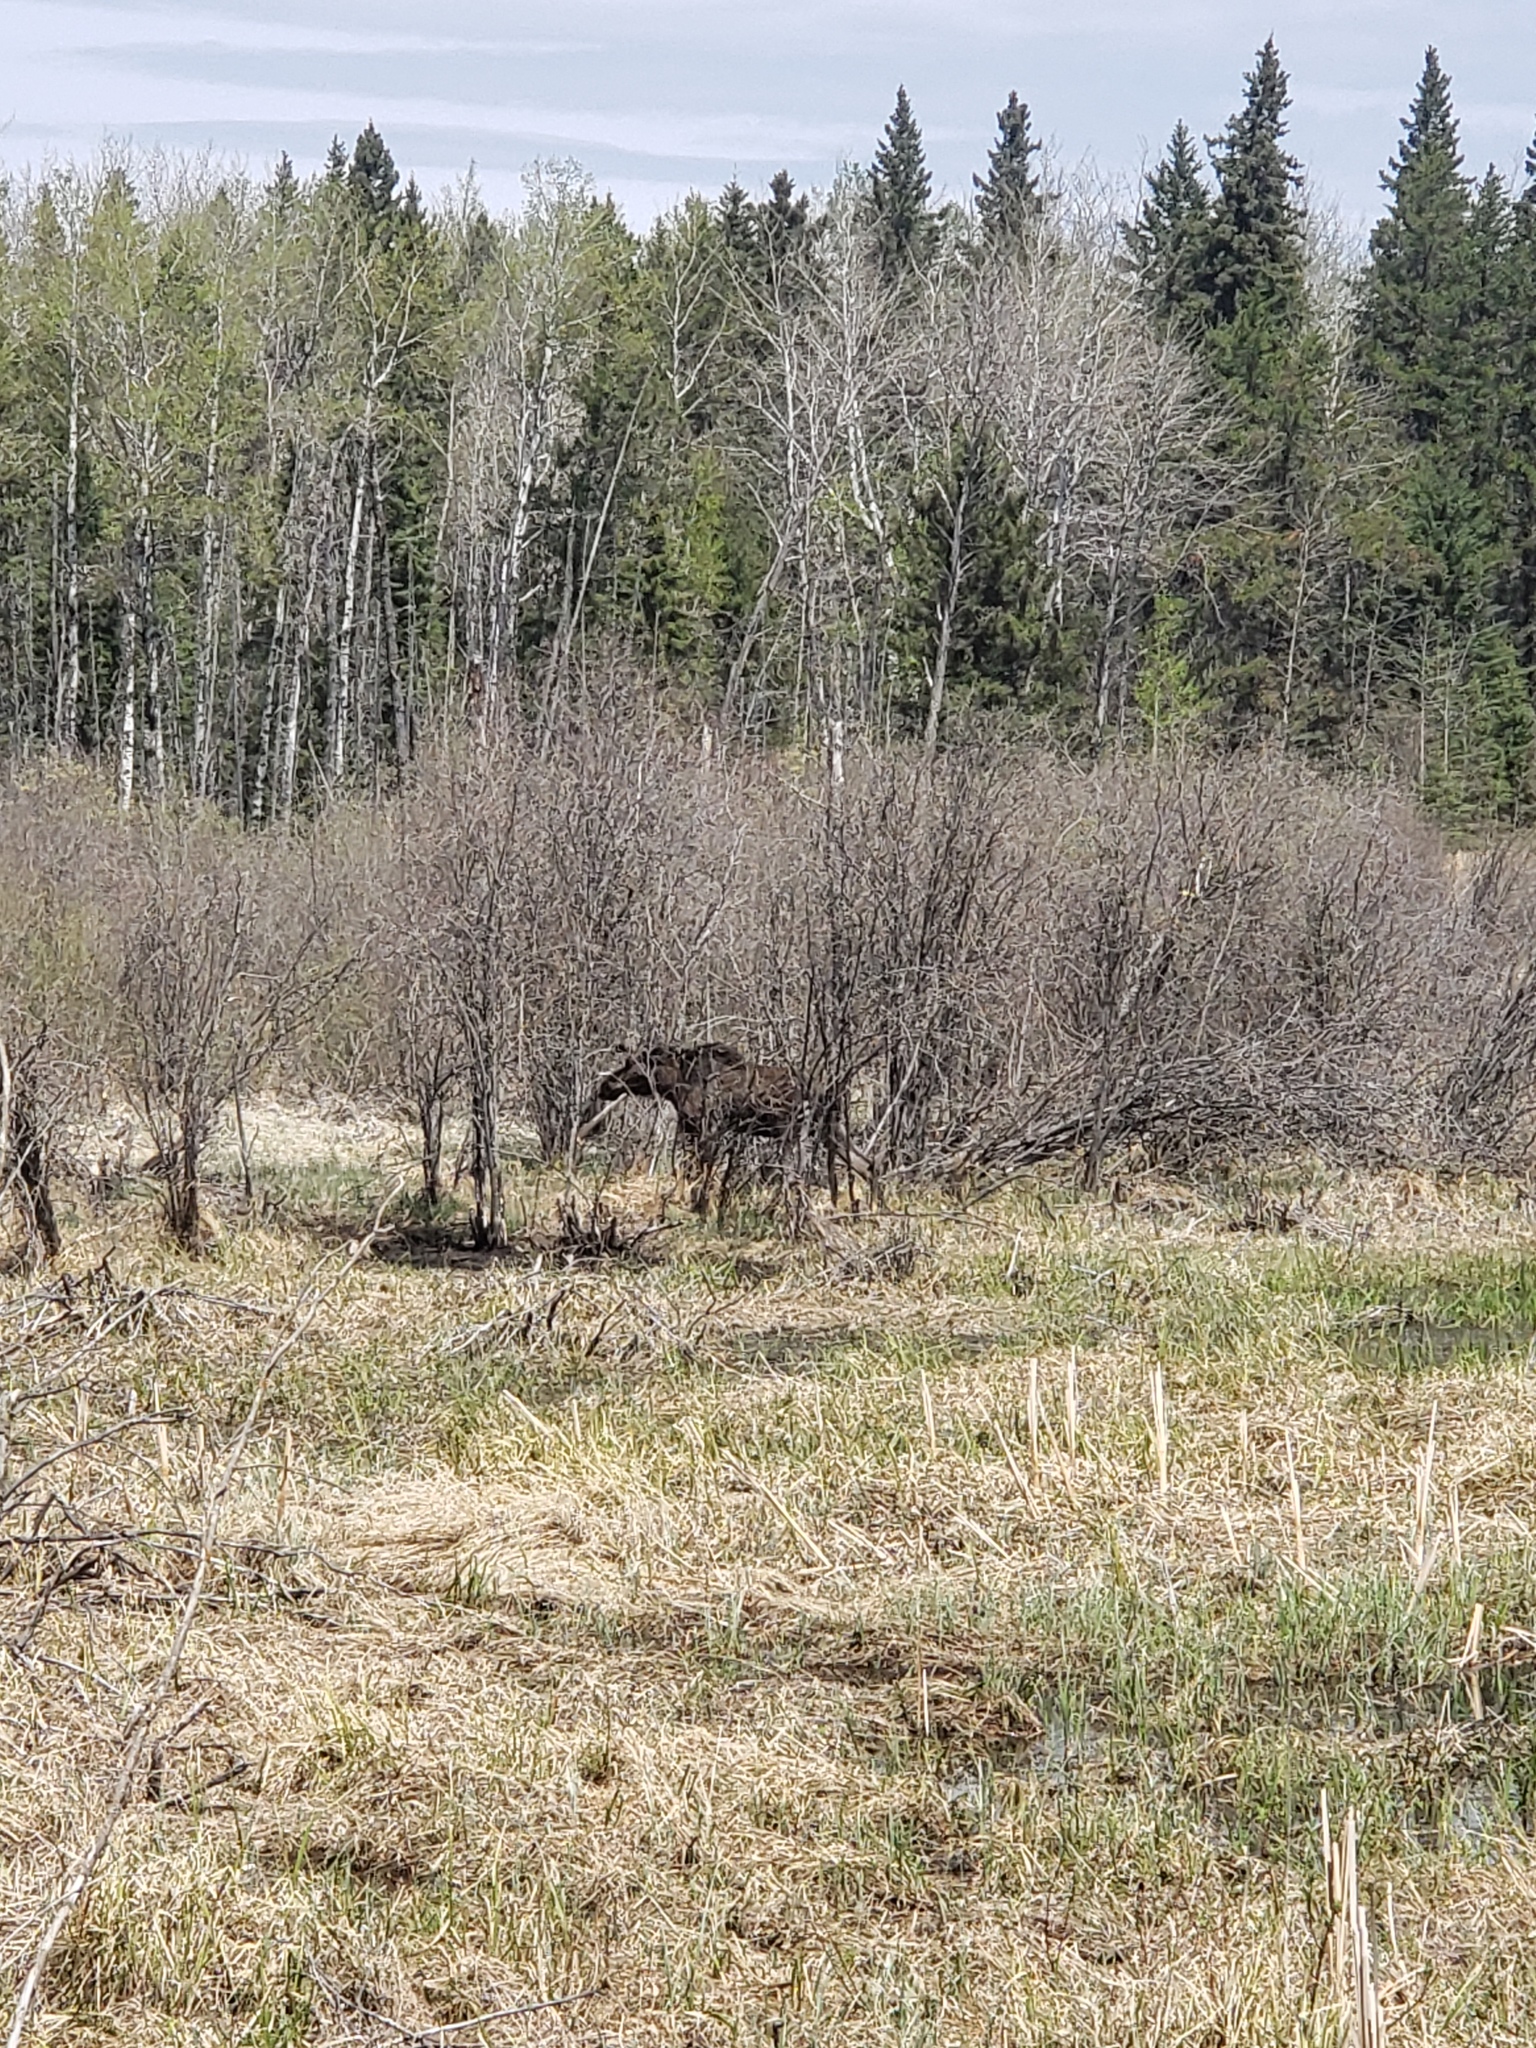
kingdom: Animalia
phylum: Chordata
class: Mammalia
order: Artiodactyla
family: Cervidae
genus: Alces
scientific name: Alces alces
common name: Moose
